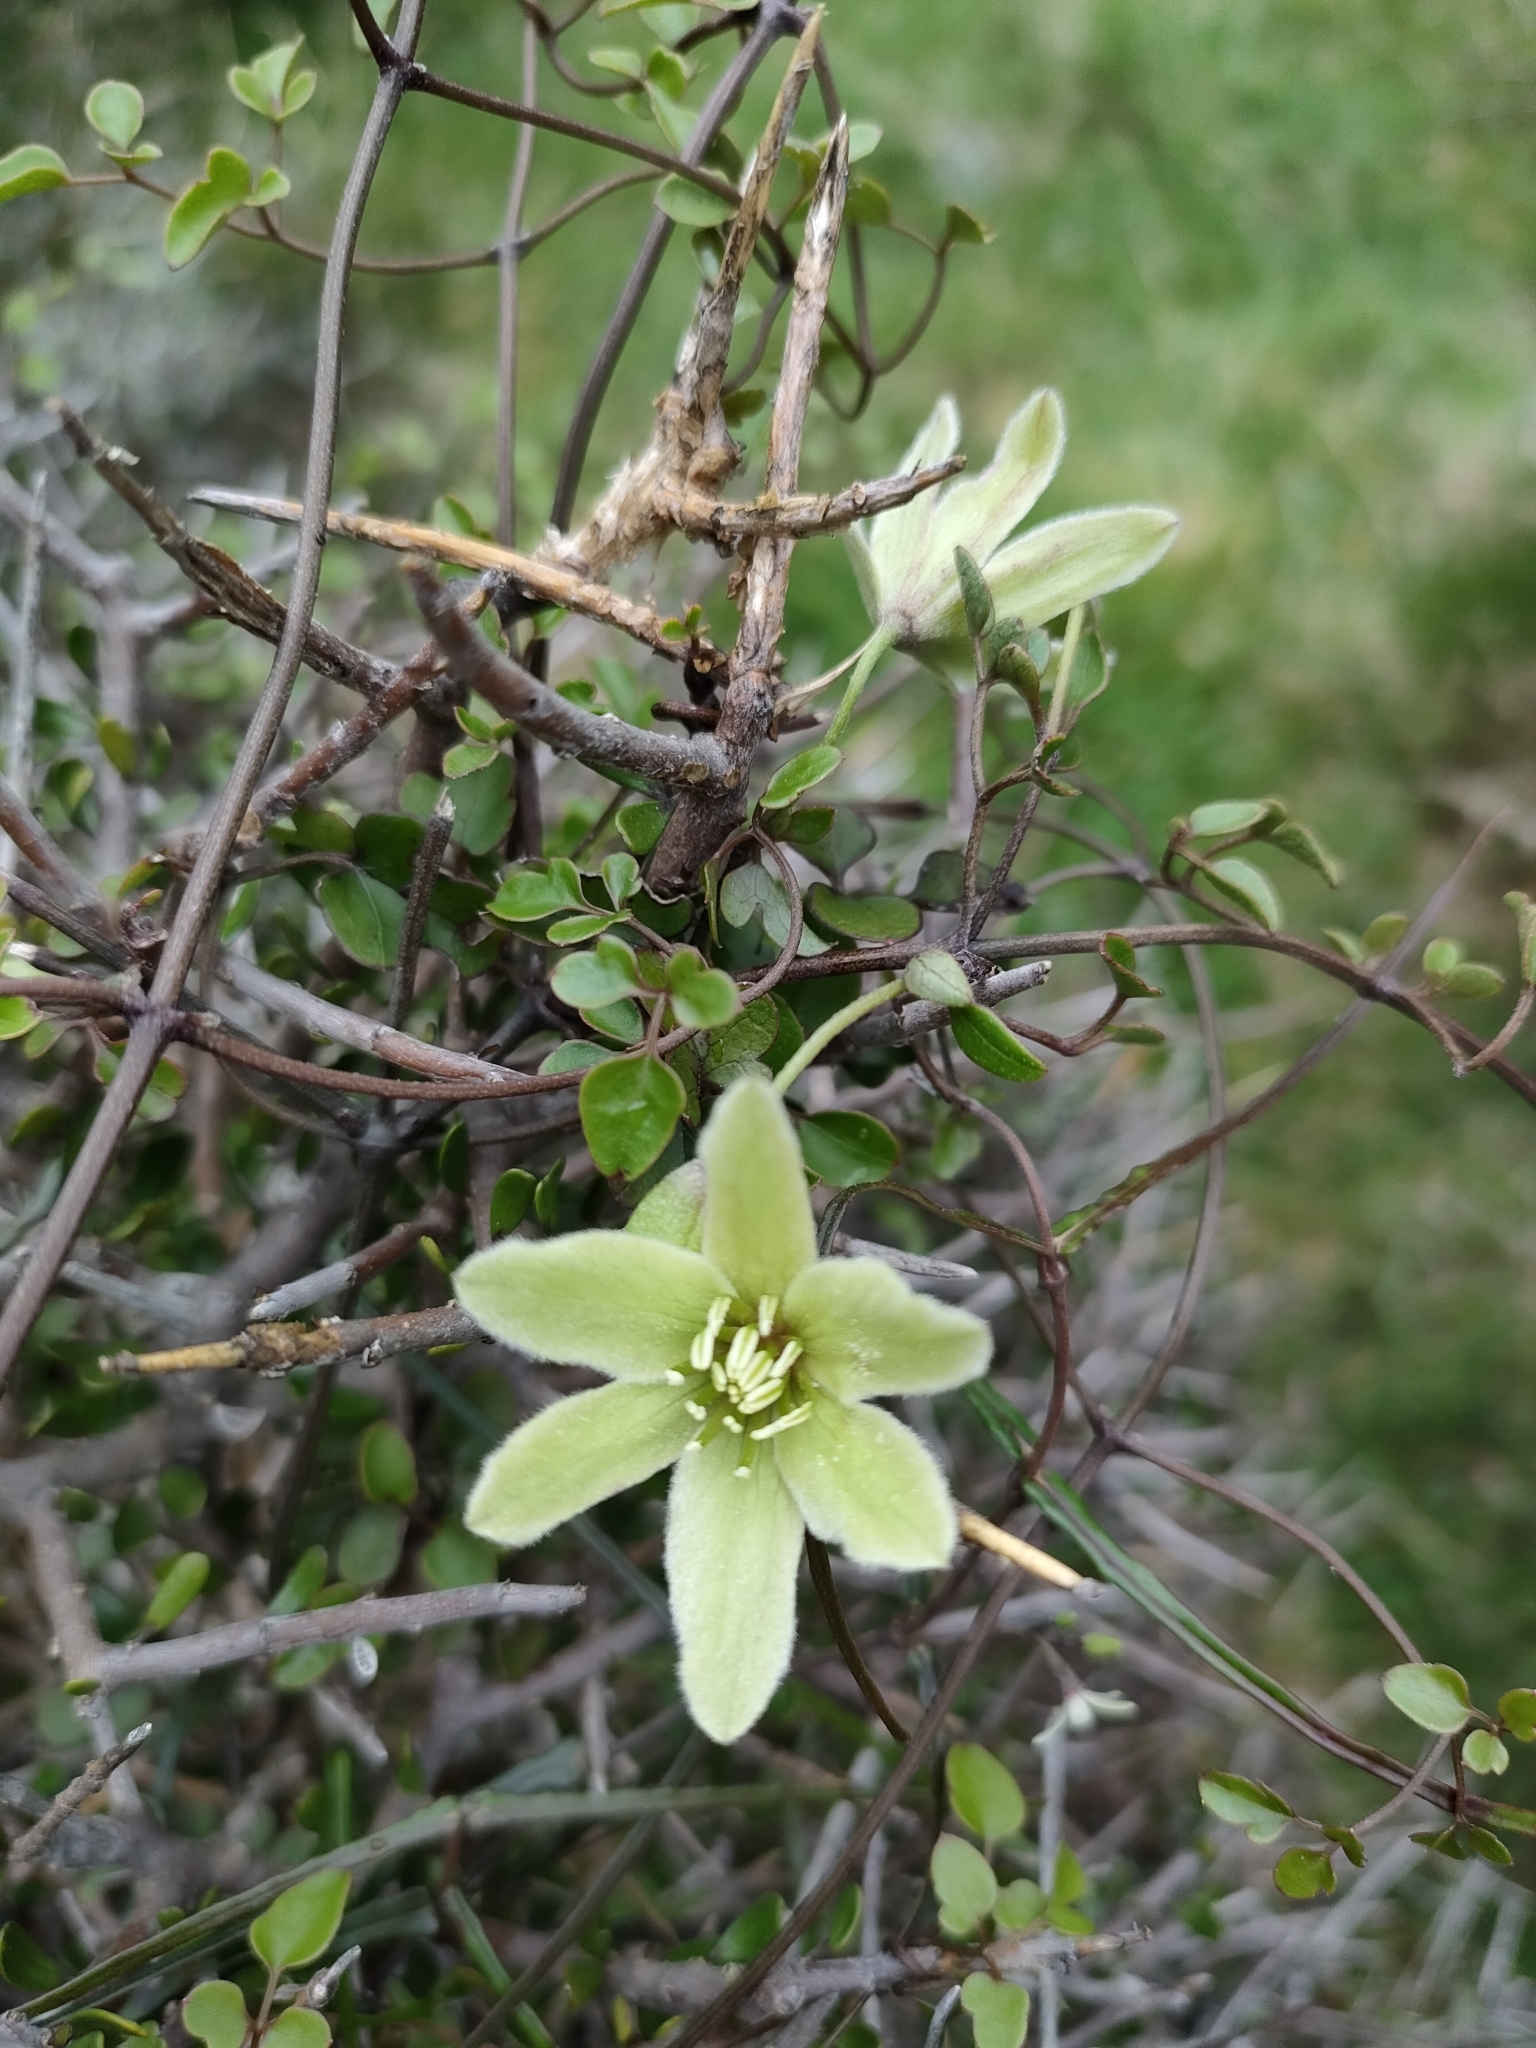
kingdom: Plantae
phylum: Tracheophyta
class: Magnoliopsida
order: Ranunculales
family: Ranunculaceae
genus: Clematis
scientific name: Clematis forsteri
